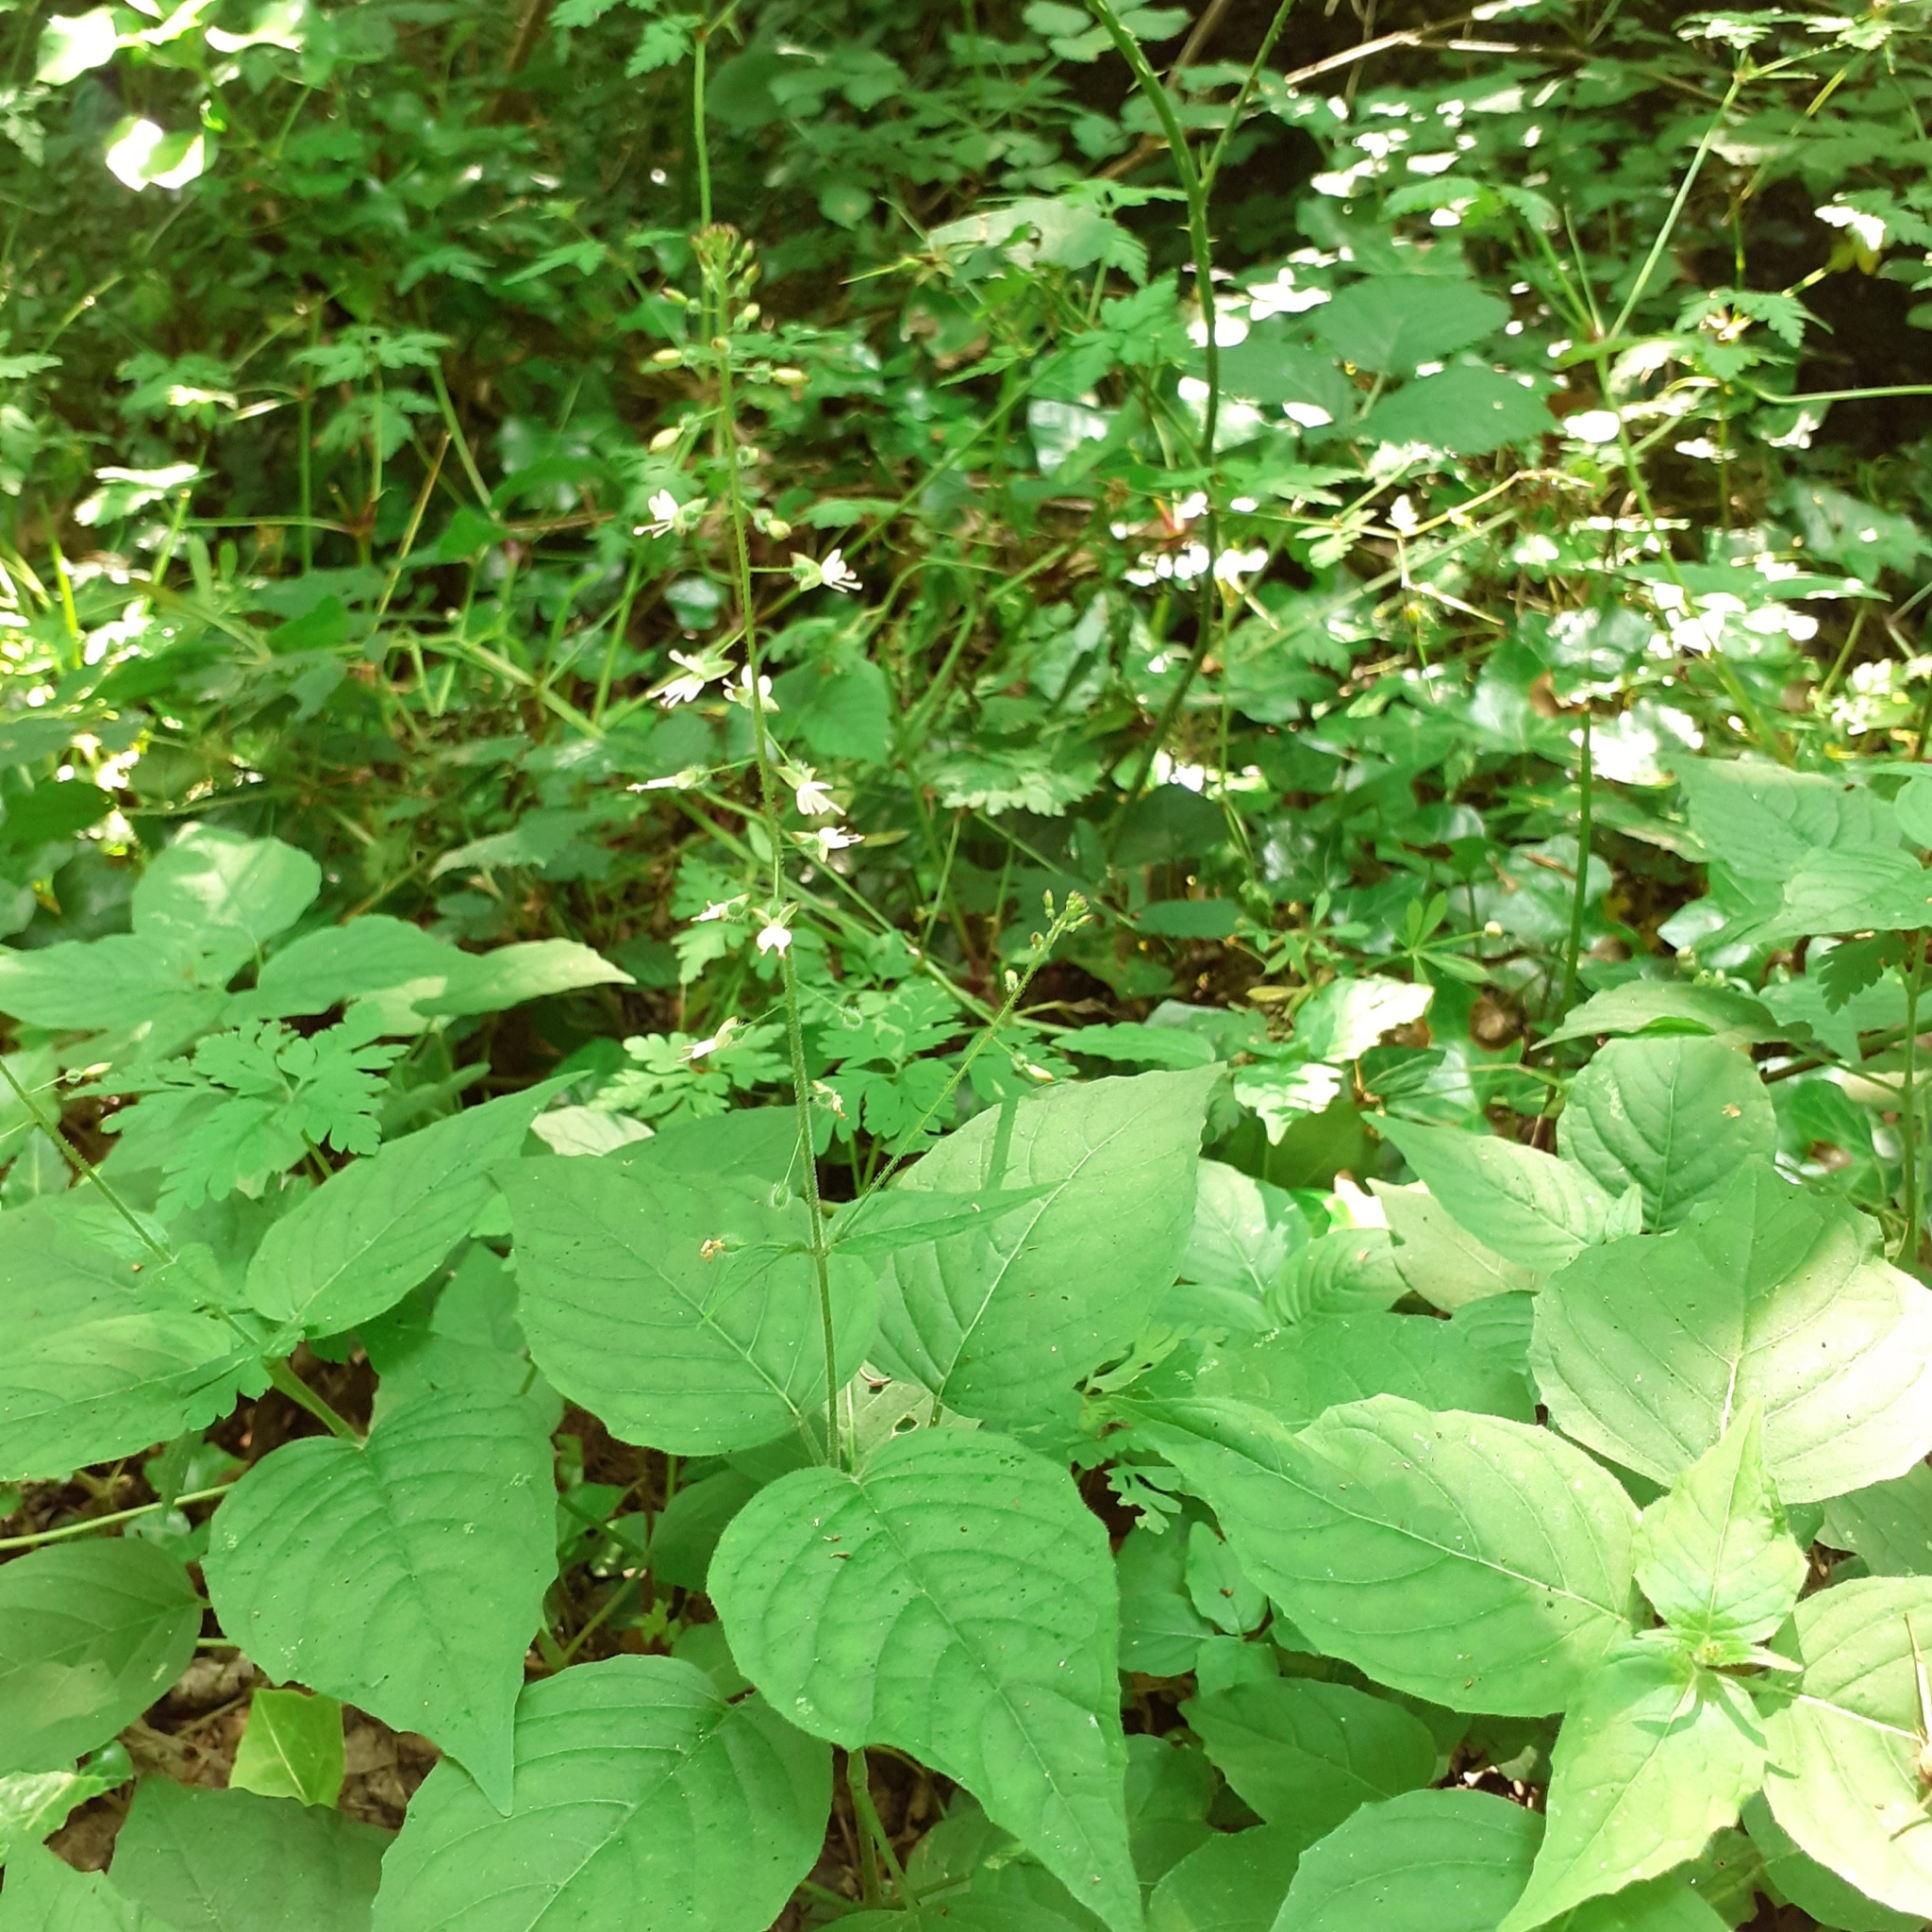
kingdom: Plantae
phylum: Tracheophyta
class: Magnoliopsida
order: Myrtales
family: Onagraceae
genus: Circaea
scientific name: Circaea lutetiana
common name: Enchanter's-nightshade
